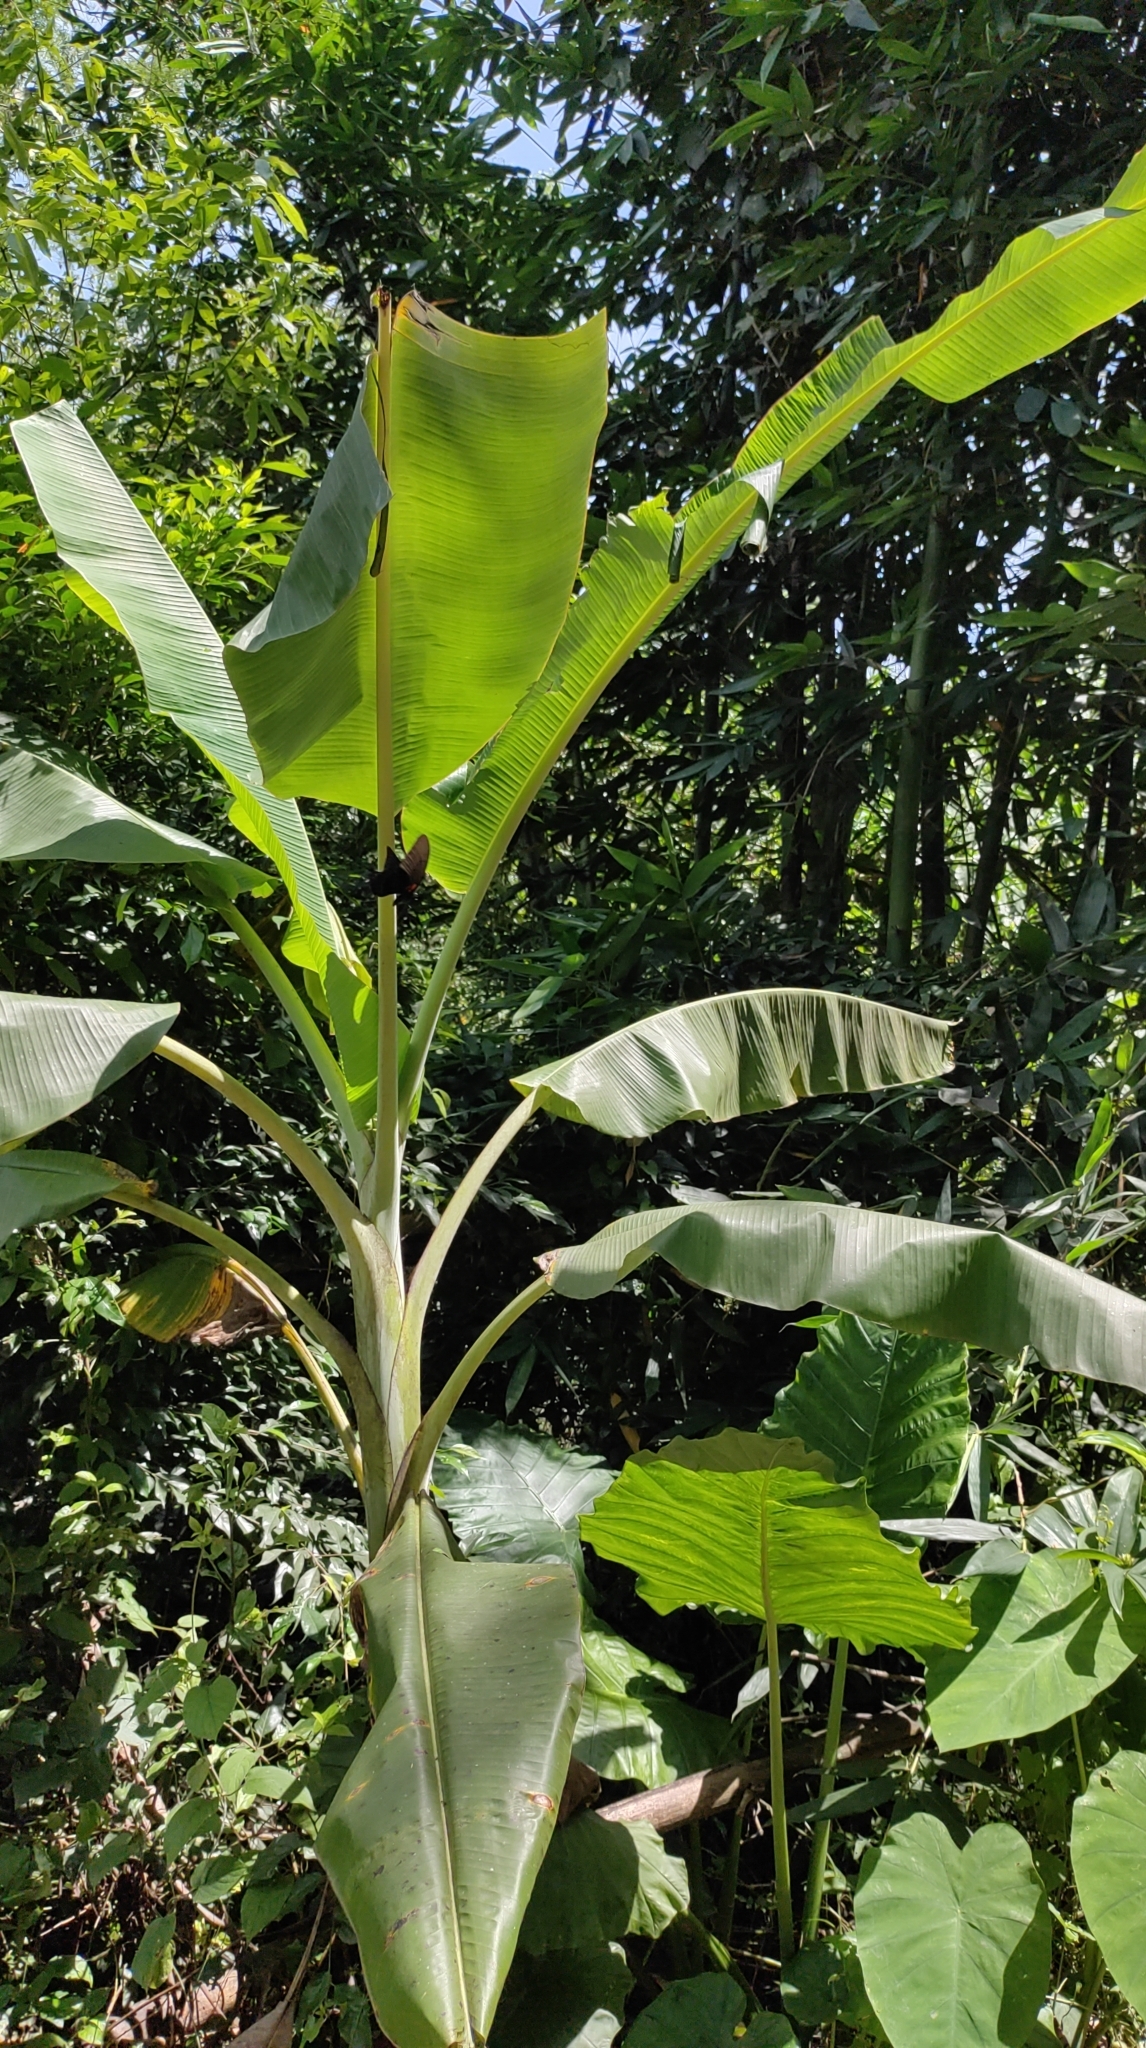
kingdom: Plantae
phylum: Tracheophyta
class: Liliopsida
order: Zingiberales
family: Musaceae
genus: Musa
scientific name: Musa paradisiaca
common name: French plantain
